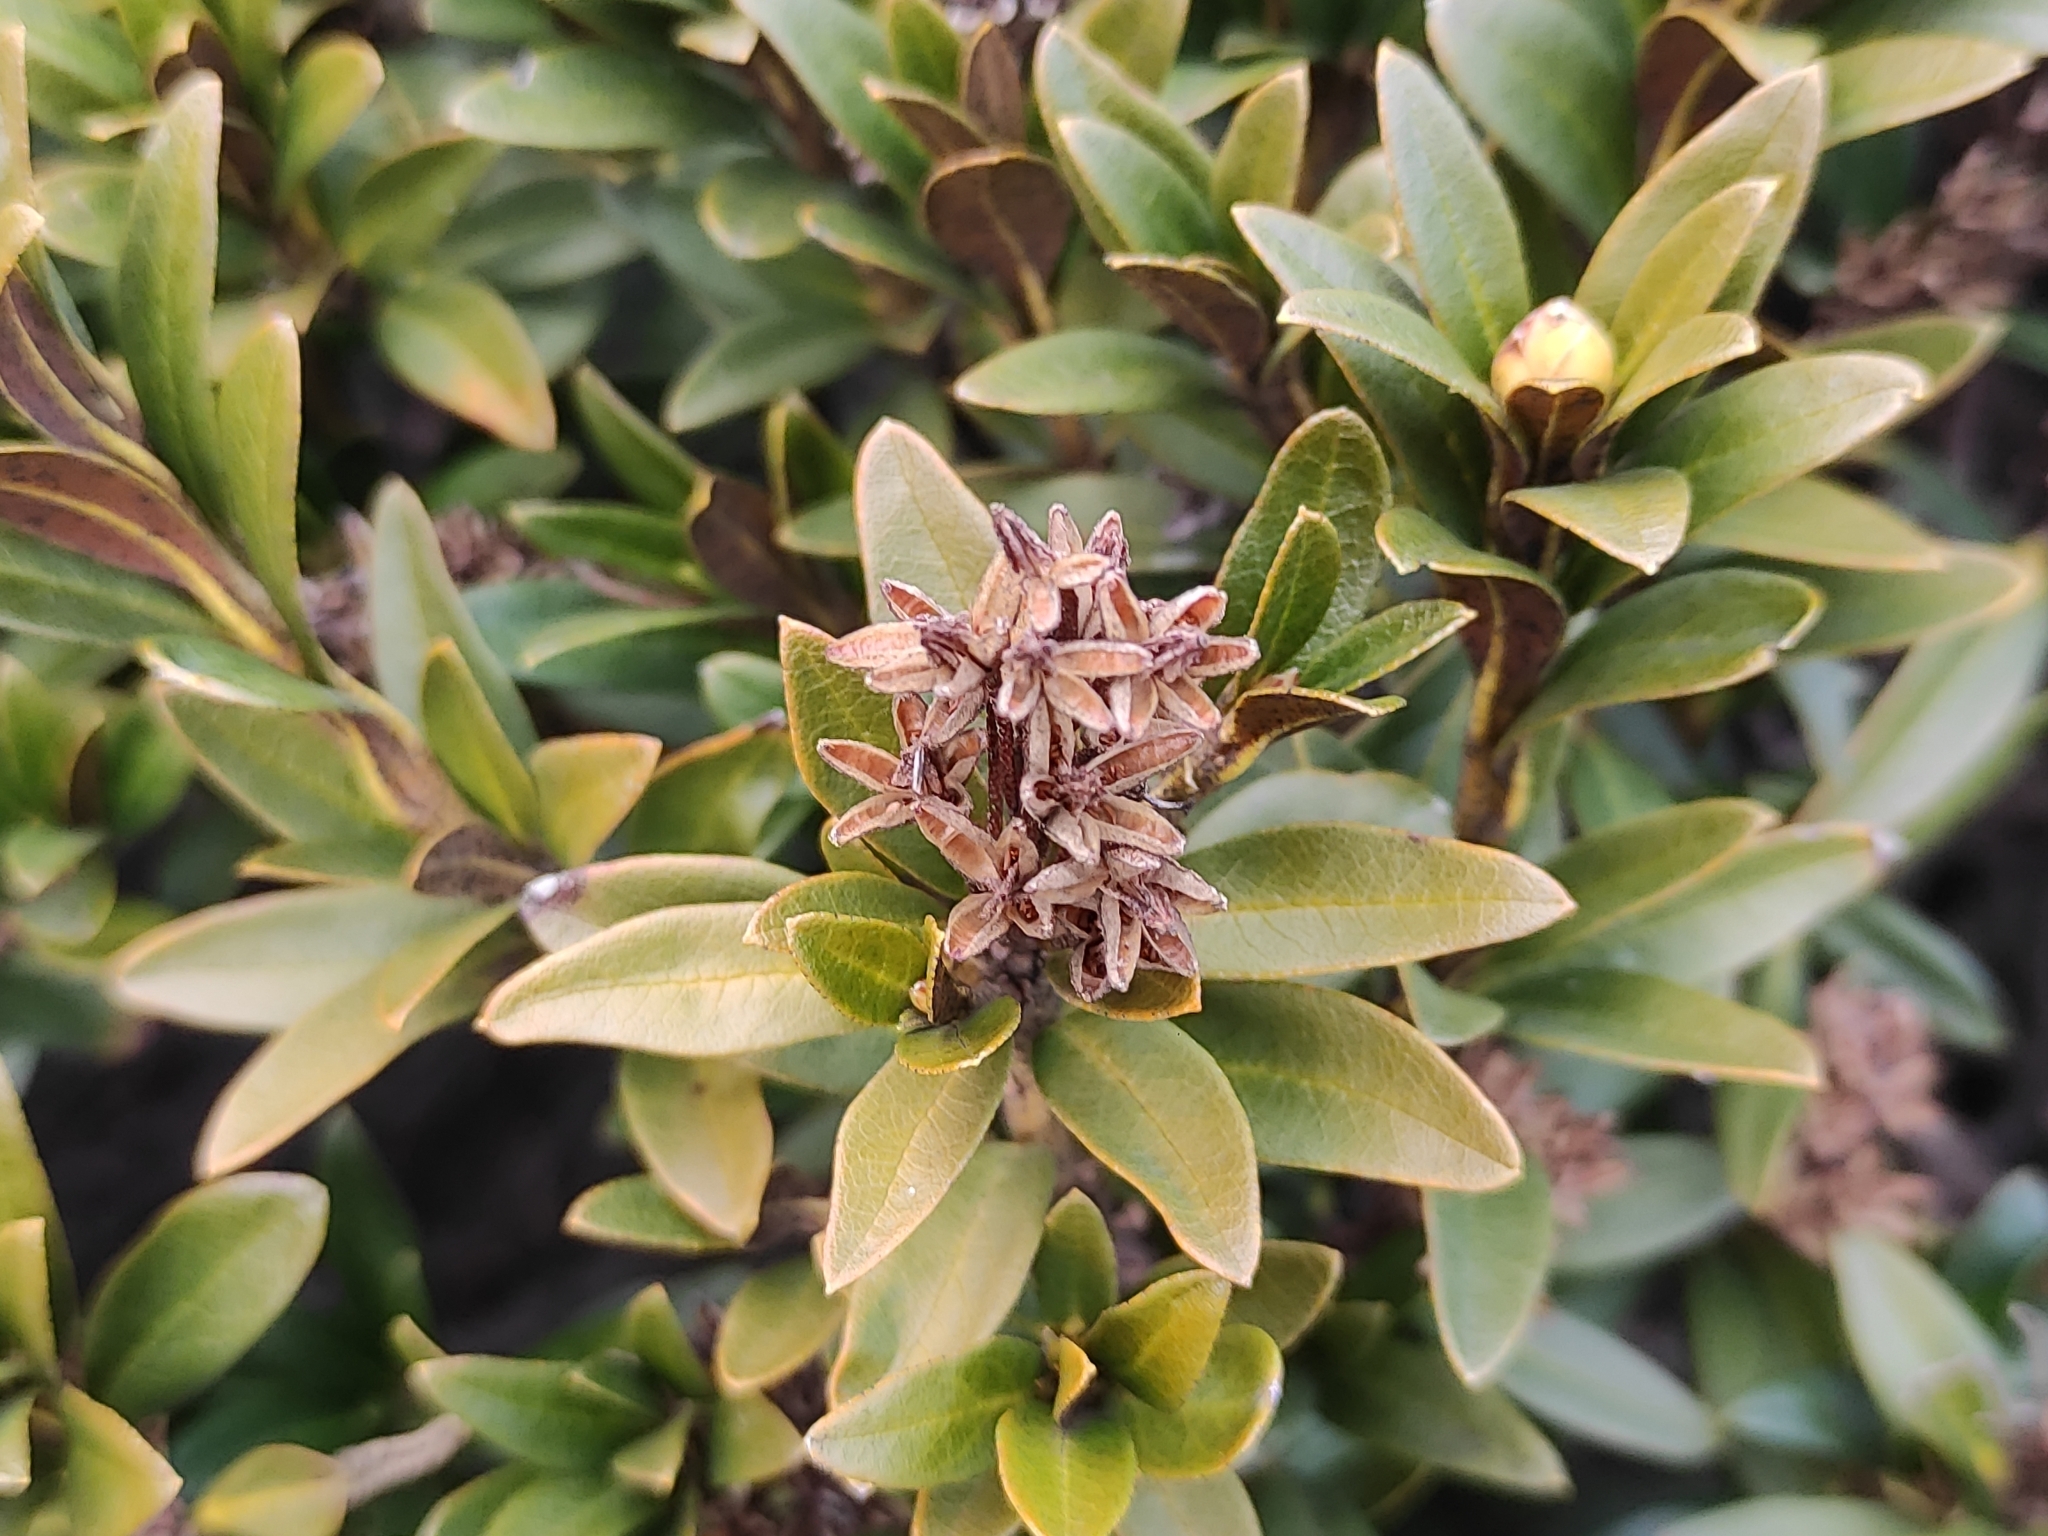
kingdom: Plantae
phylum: Tracheophyta
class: Magnoliopsida
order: Ericales
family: Ericaceae
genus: Rhododendron
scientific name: Rhododendron ferrugineum
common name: Alpenrose
